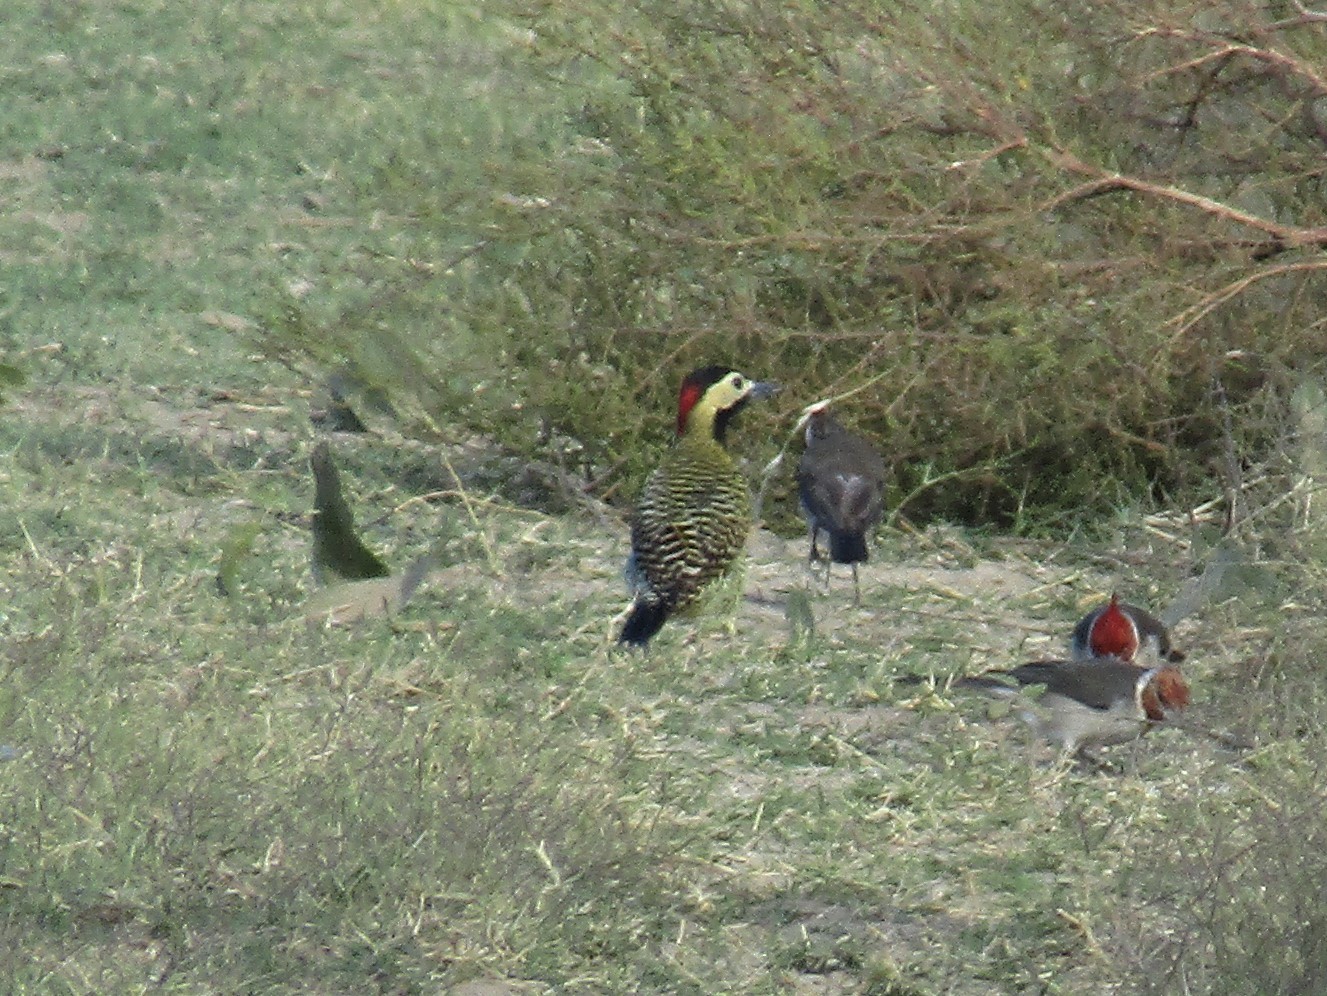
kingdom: Animalia
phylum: Chordata
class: Aves
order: Piciformes
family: Picidae
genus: Colaptes
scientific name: Colaptes melanochloros
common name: Green-barred woodpecker
